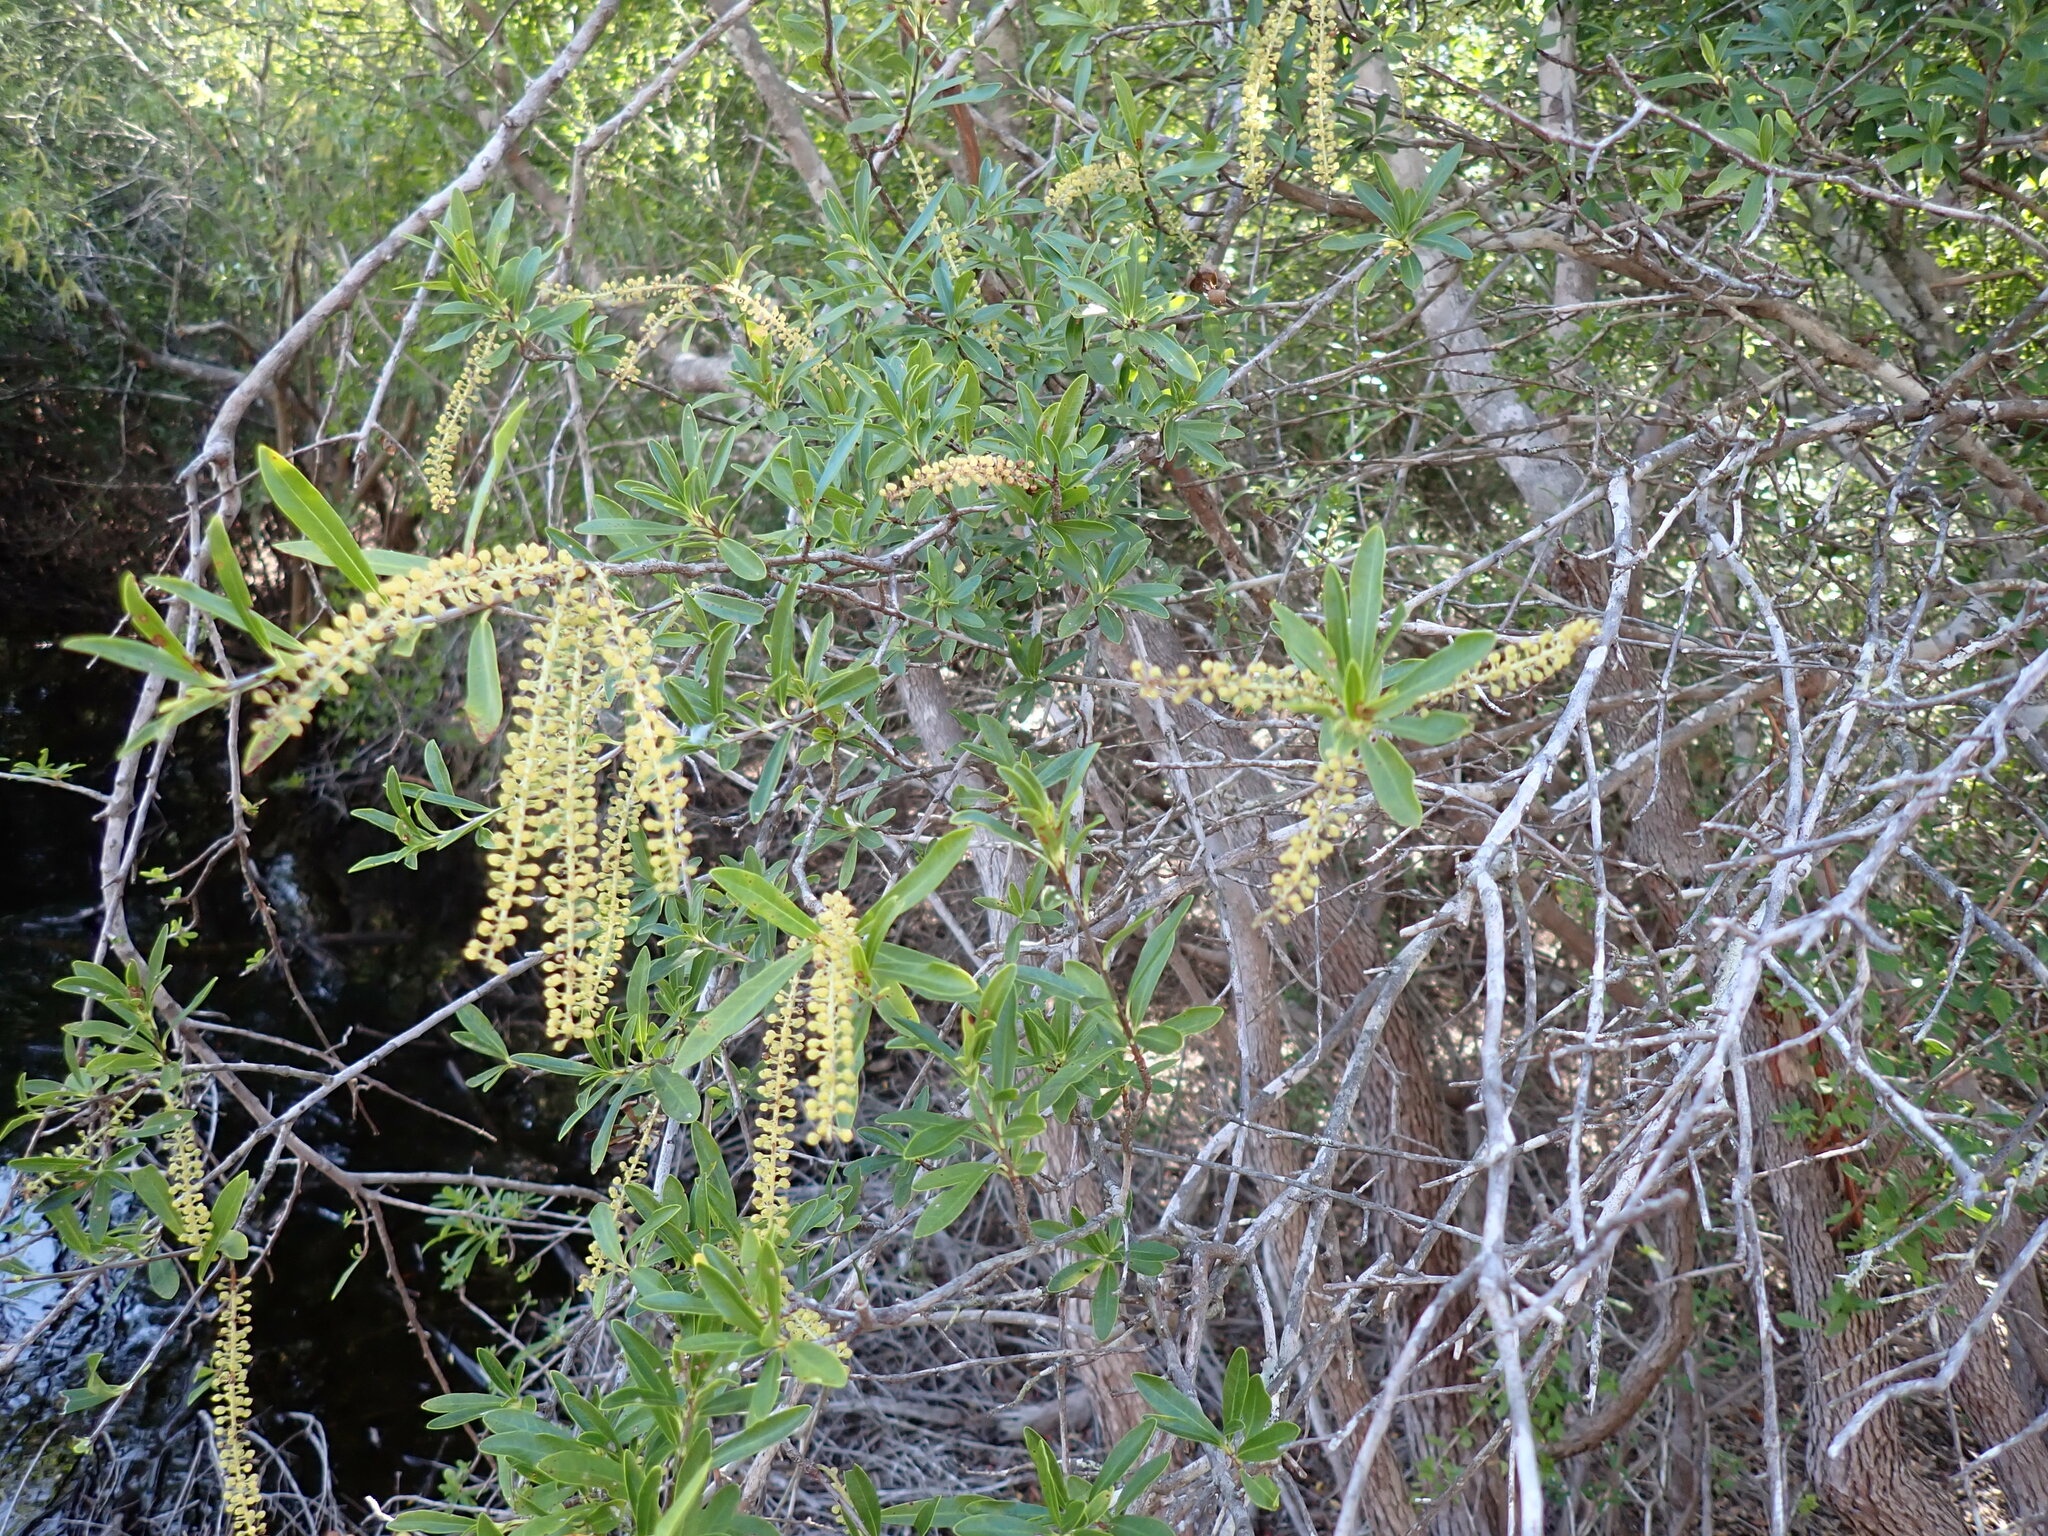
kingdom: Plantae
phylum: Tracheophyta
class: Magnoliopsida
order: Ericales
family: Cyrillaceae
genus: Cyrilla
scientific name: Cyrilla racemiflora
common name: Black titi
